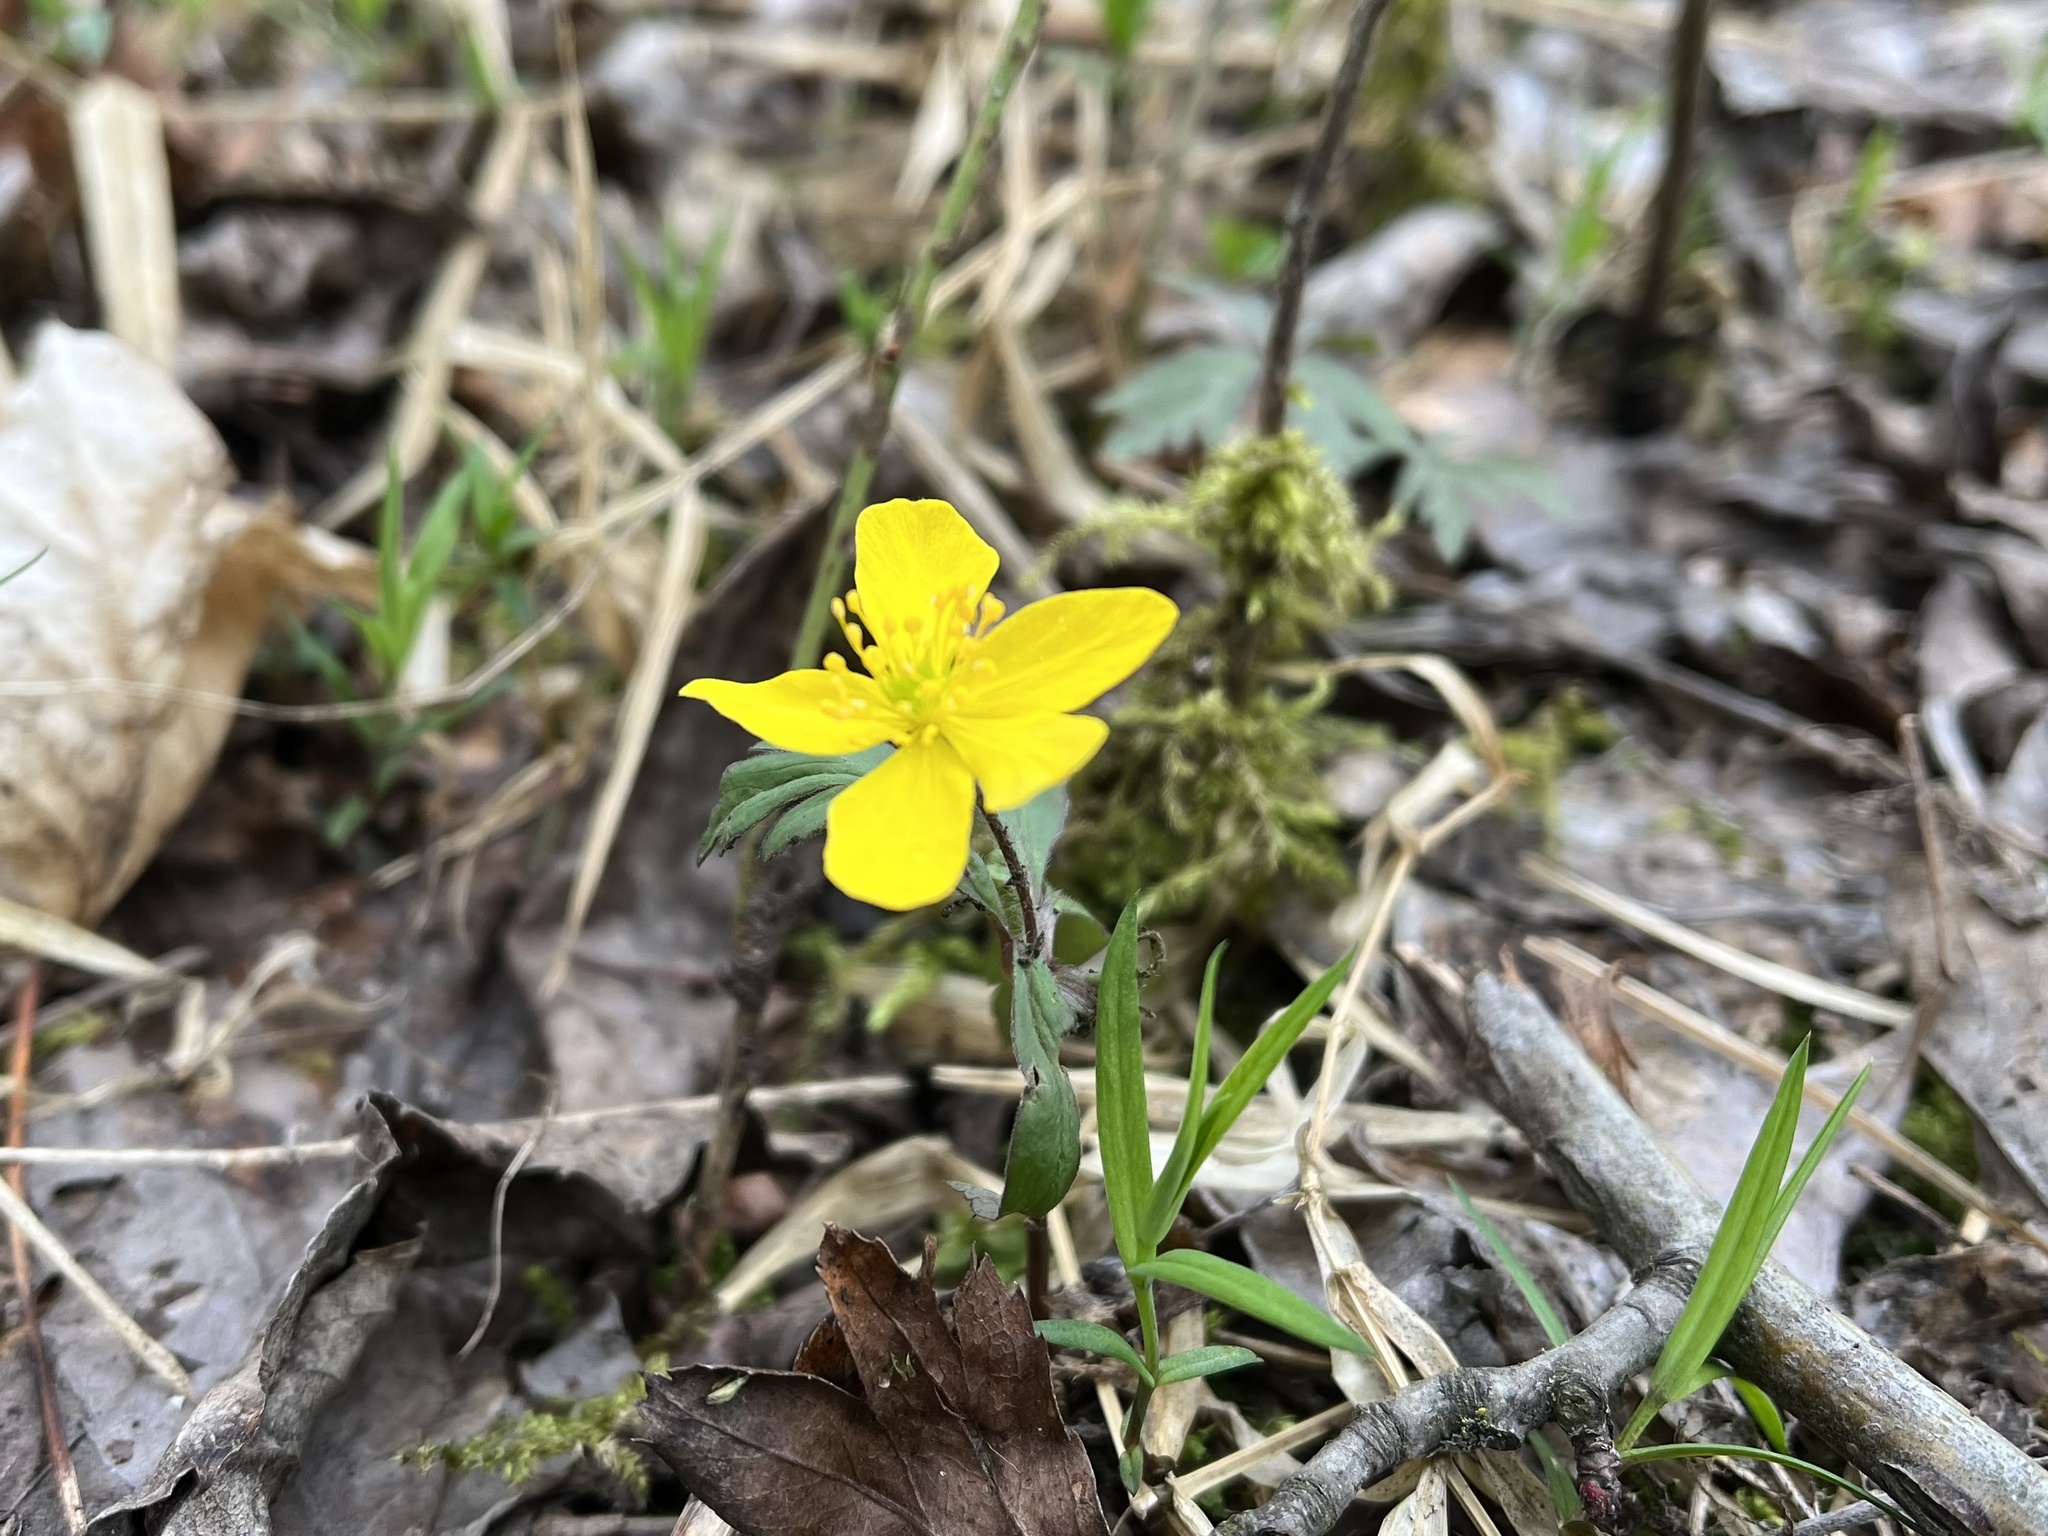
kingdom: Plantae
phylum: Tracheophyta
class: Magnoliopsida
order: Ranunculales
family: Ranunculaceae
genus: Anemone
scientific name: Anemone ranunculoides
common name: Yellow anemone
